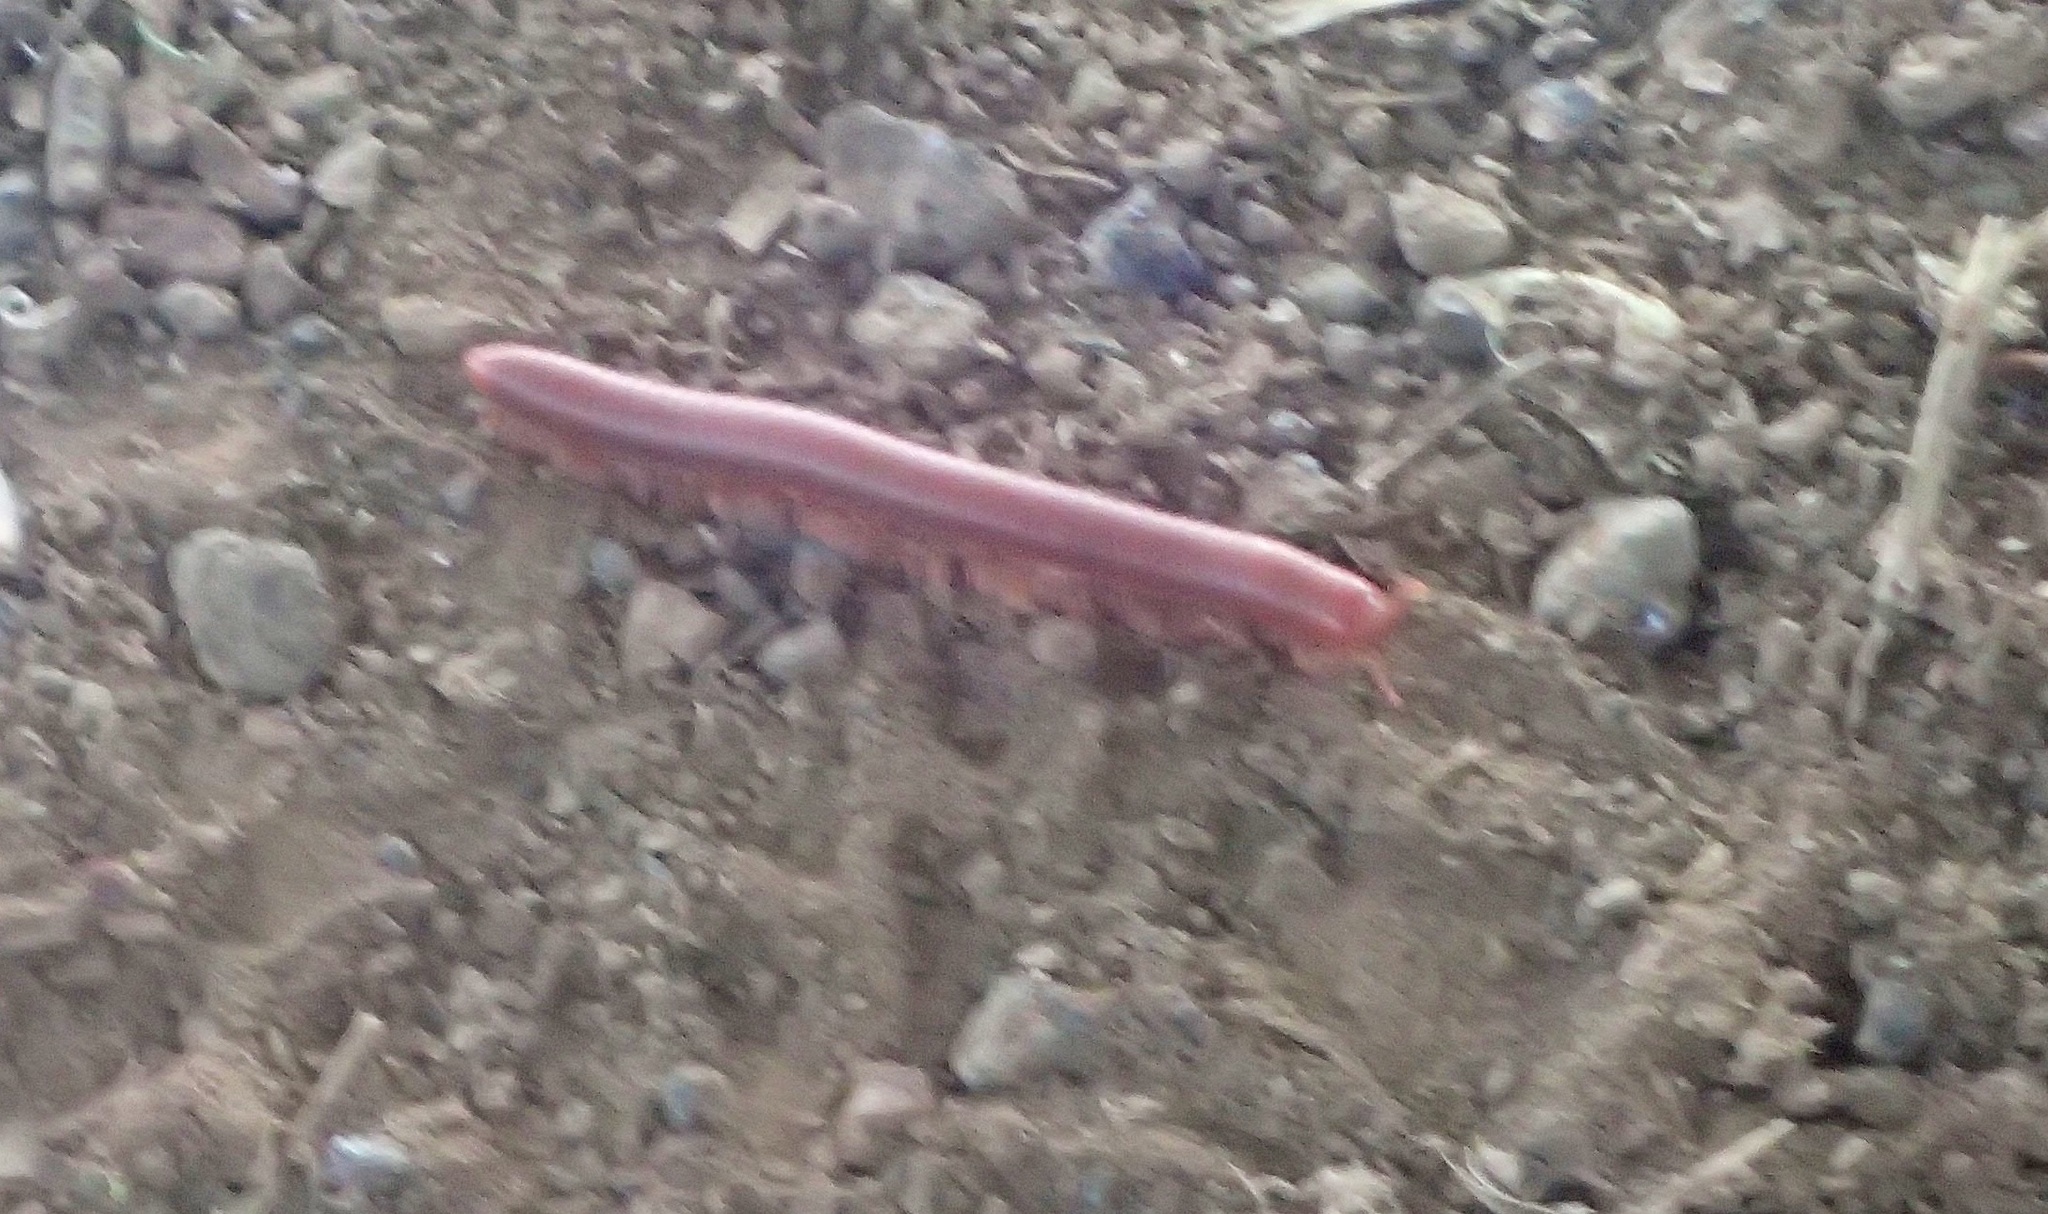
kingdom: Animalia
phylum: Arthropoda
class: Diplopoda
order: Spirobolida
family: Pachybolidae
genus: Trigoniulus
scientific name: Trigoniulus corallinus
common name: Millipede
